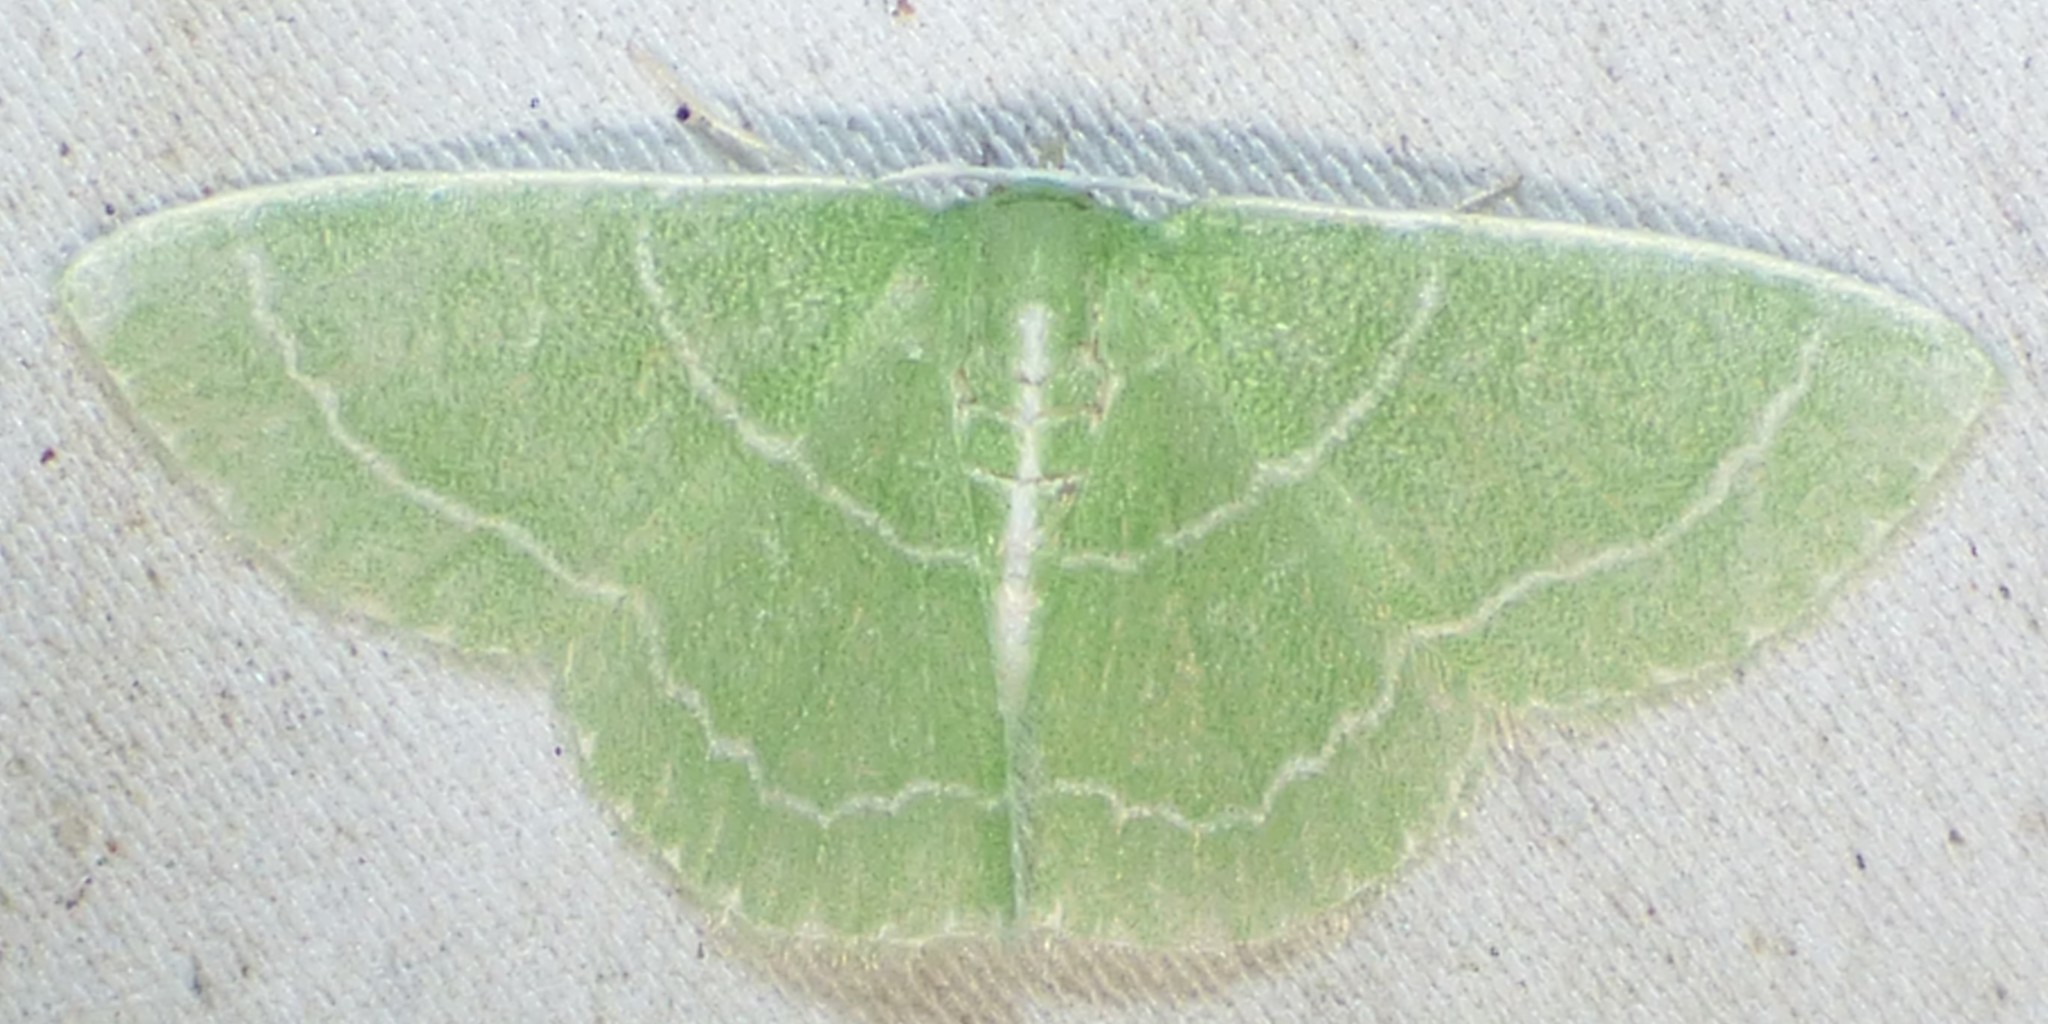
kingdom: Animalia
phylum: Arthropoda
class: Insecta
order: Lepidoptera
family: Geometridae
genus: Synchlora
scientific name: Synchlora aerata
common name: Wavy-lined emerald
